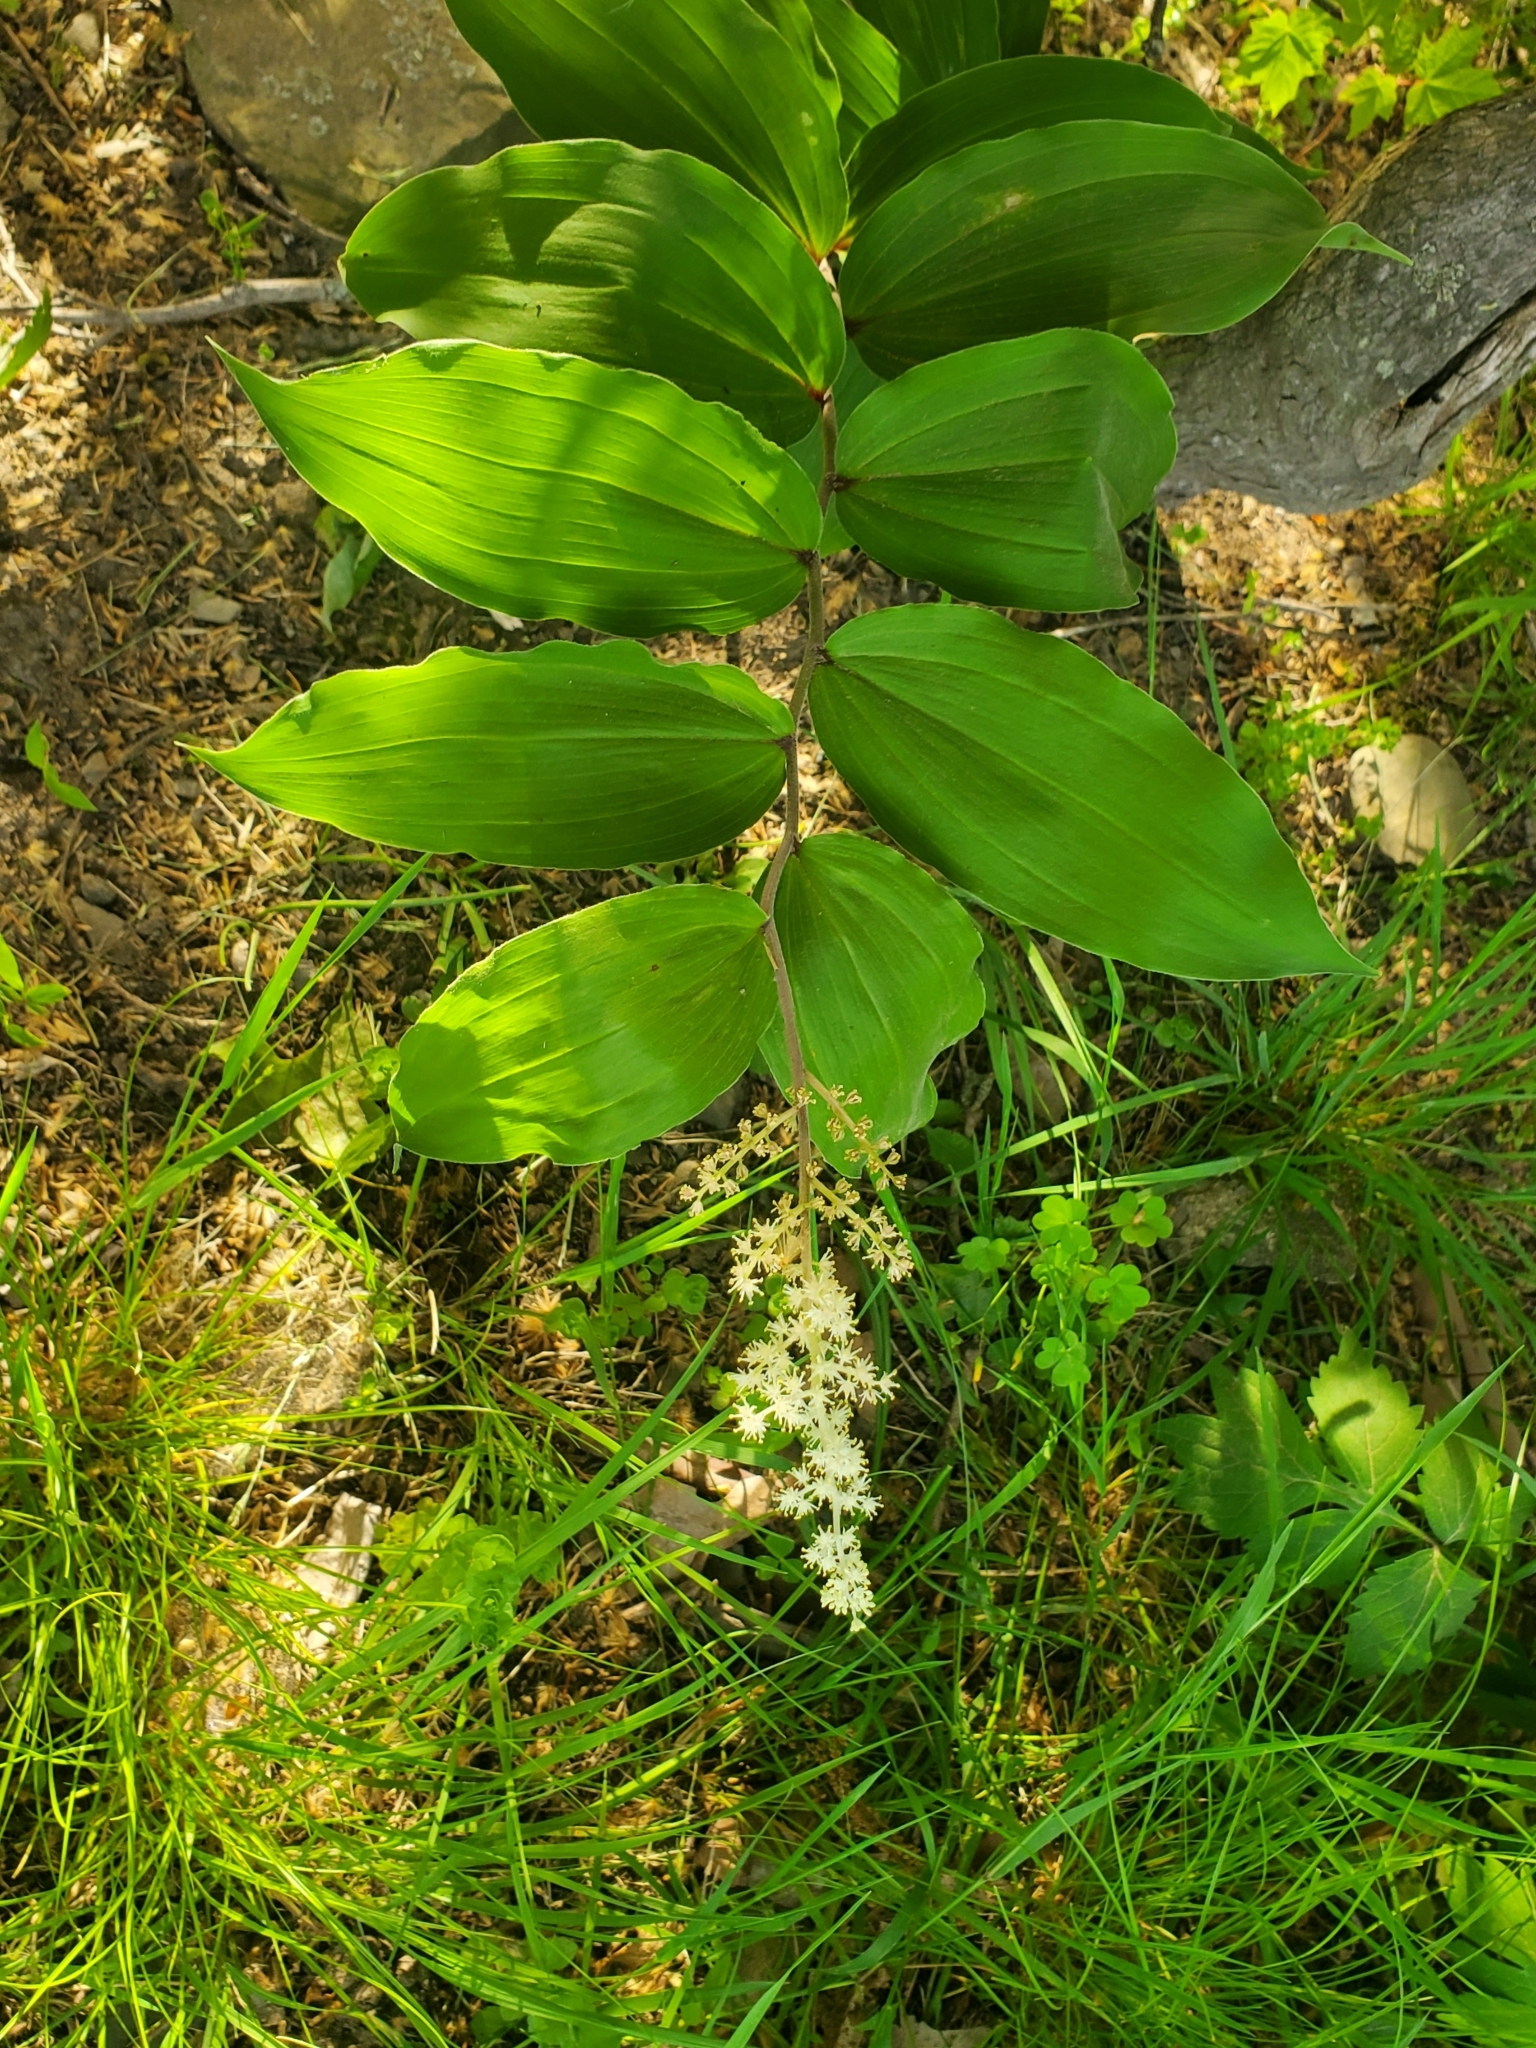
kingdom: Plantae
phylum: Tracheophyta
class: Liliopsida
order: Asparagales
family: Asparagaceae
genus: Maianthemum
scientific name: Maianthemum racemosum
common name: False spikenard
